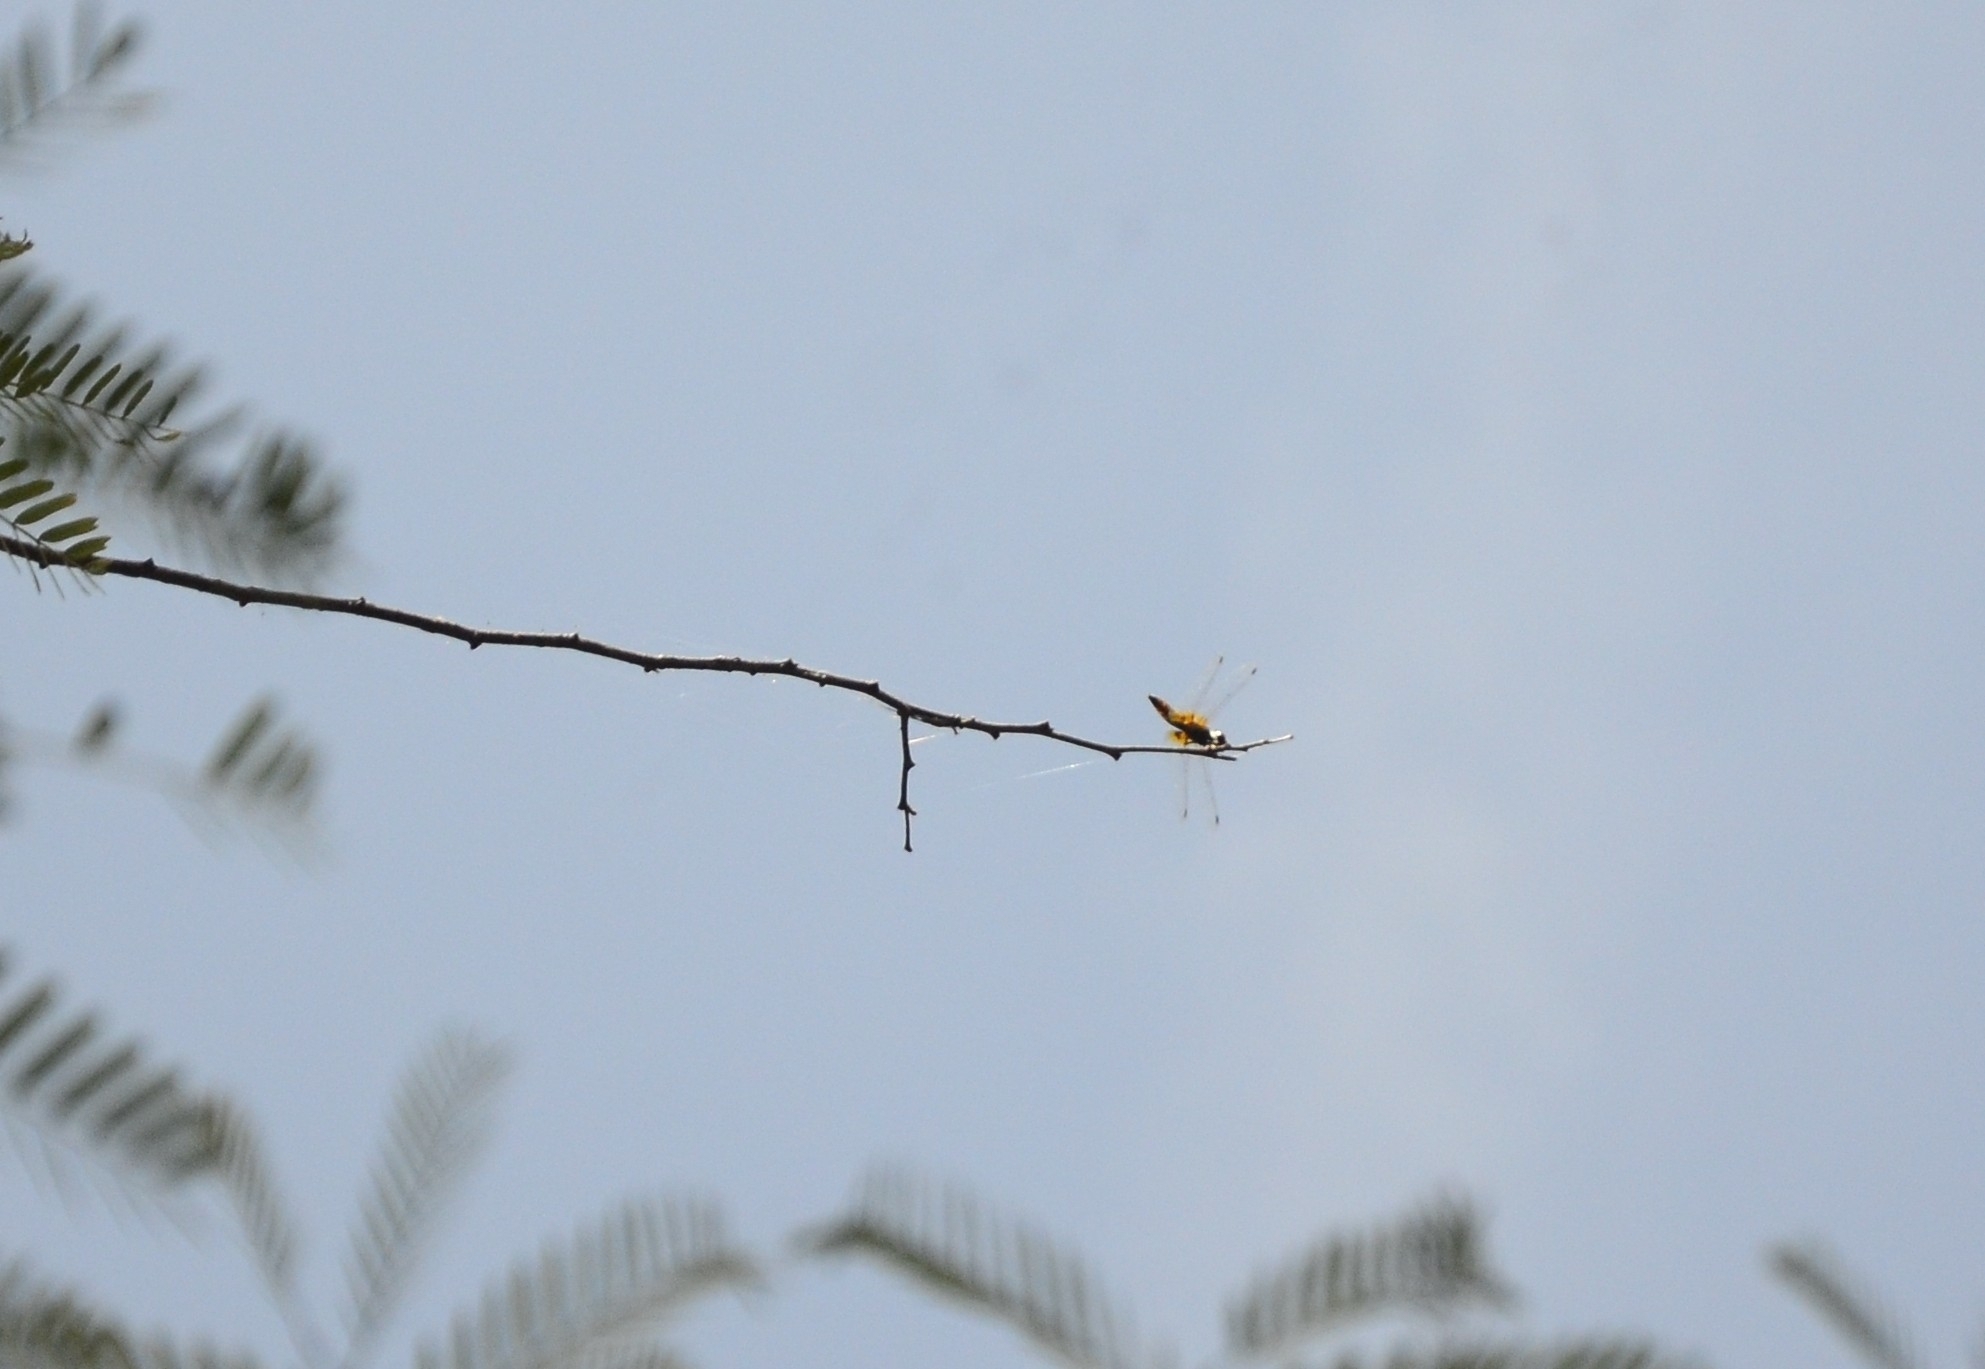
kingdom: Animalia
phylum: Arthropoda
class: Insecta
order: Odonata
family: Libellulidae
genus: Aethriamanta
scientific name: Aethriamanta brevipennis
